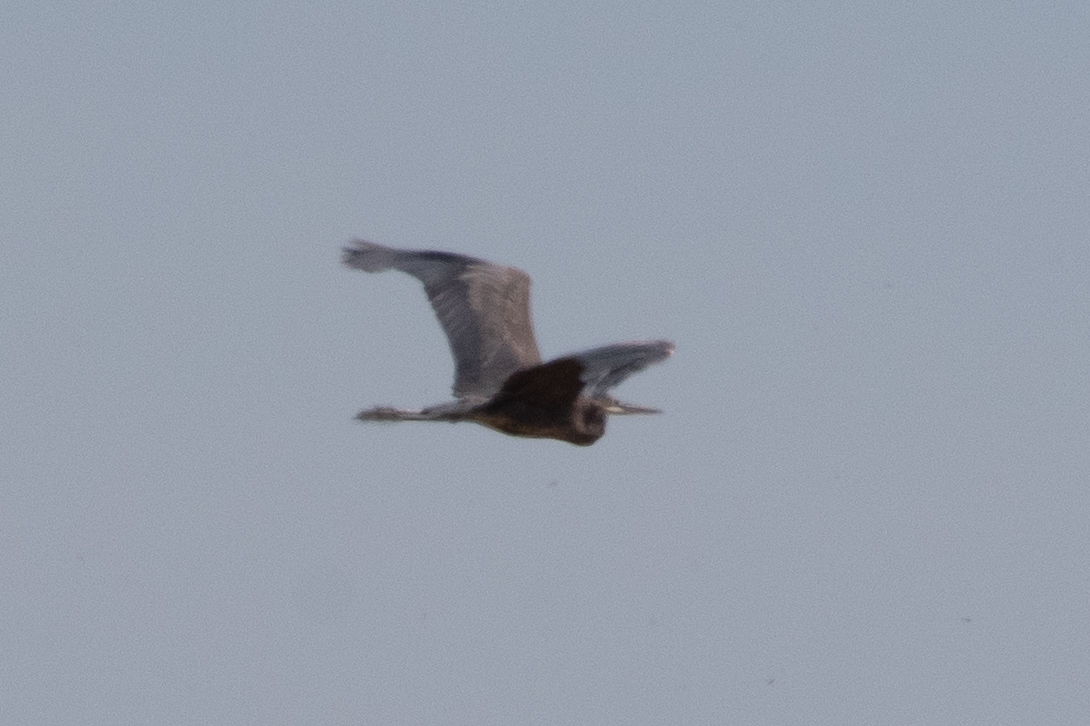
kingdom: Animalia
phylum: Chordata
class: Aves
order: Pelecaniformes
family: Ardeidae
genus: Ardea
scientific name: Ardea herodias
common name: Great blue heron
